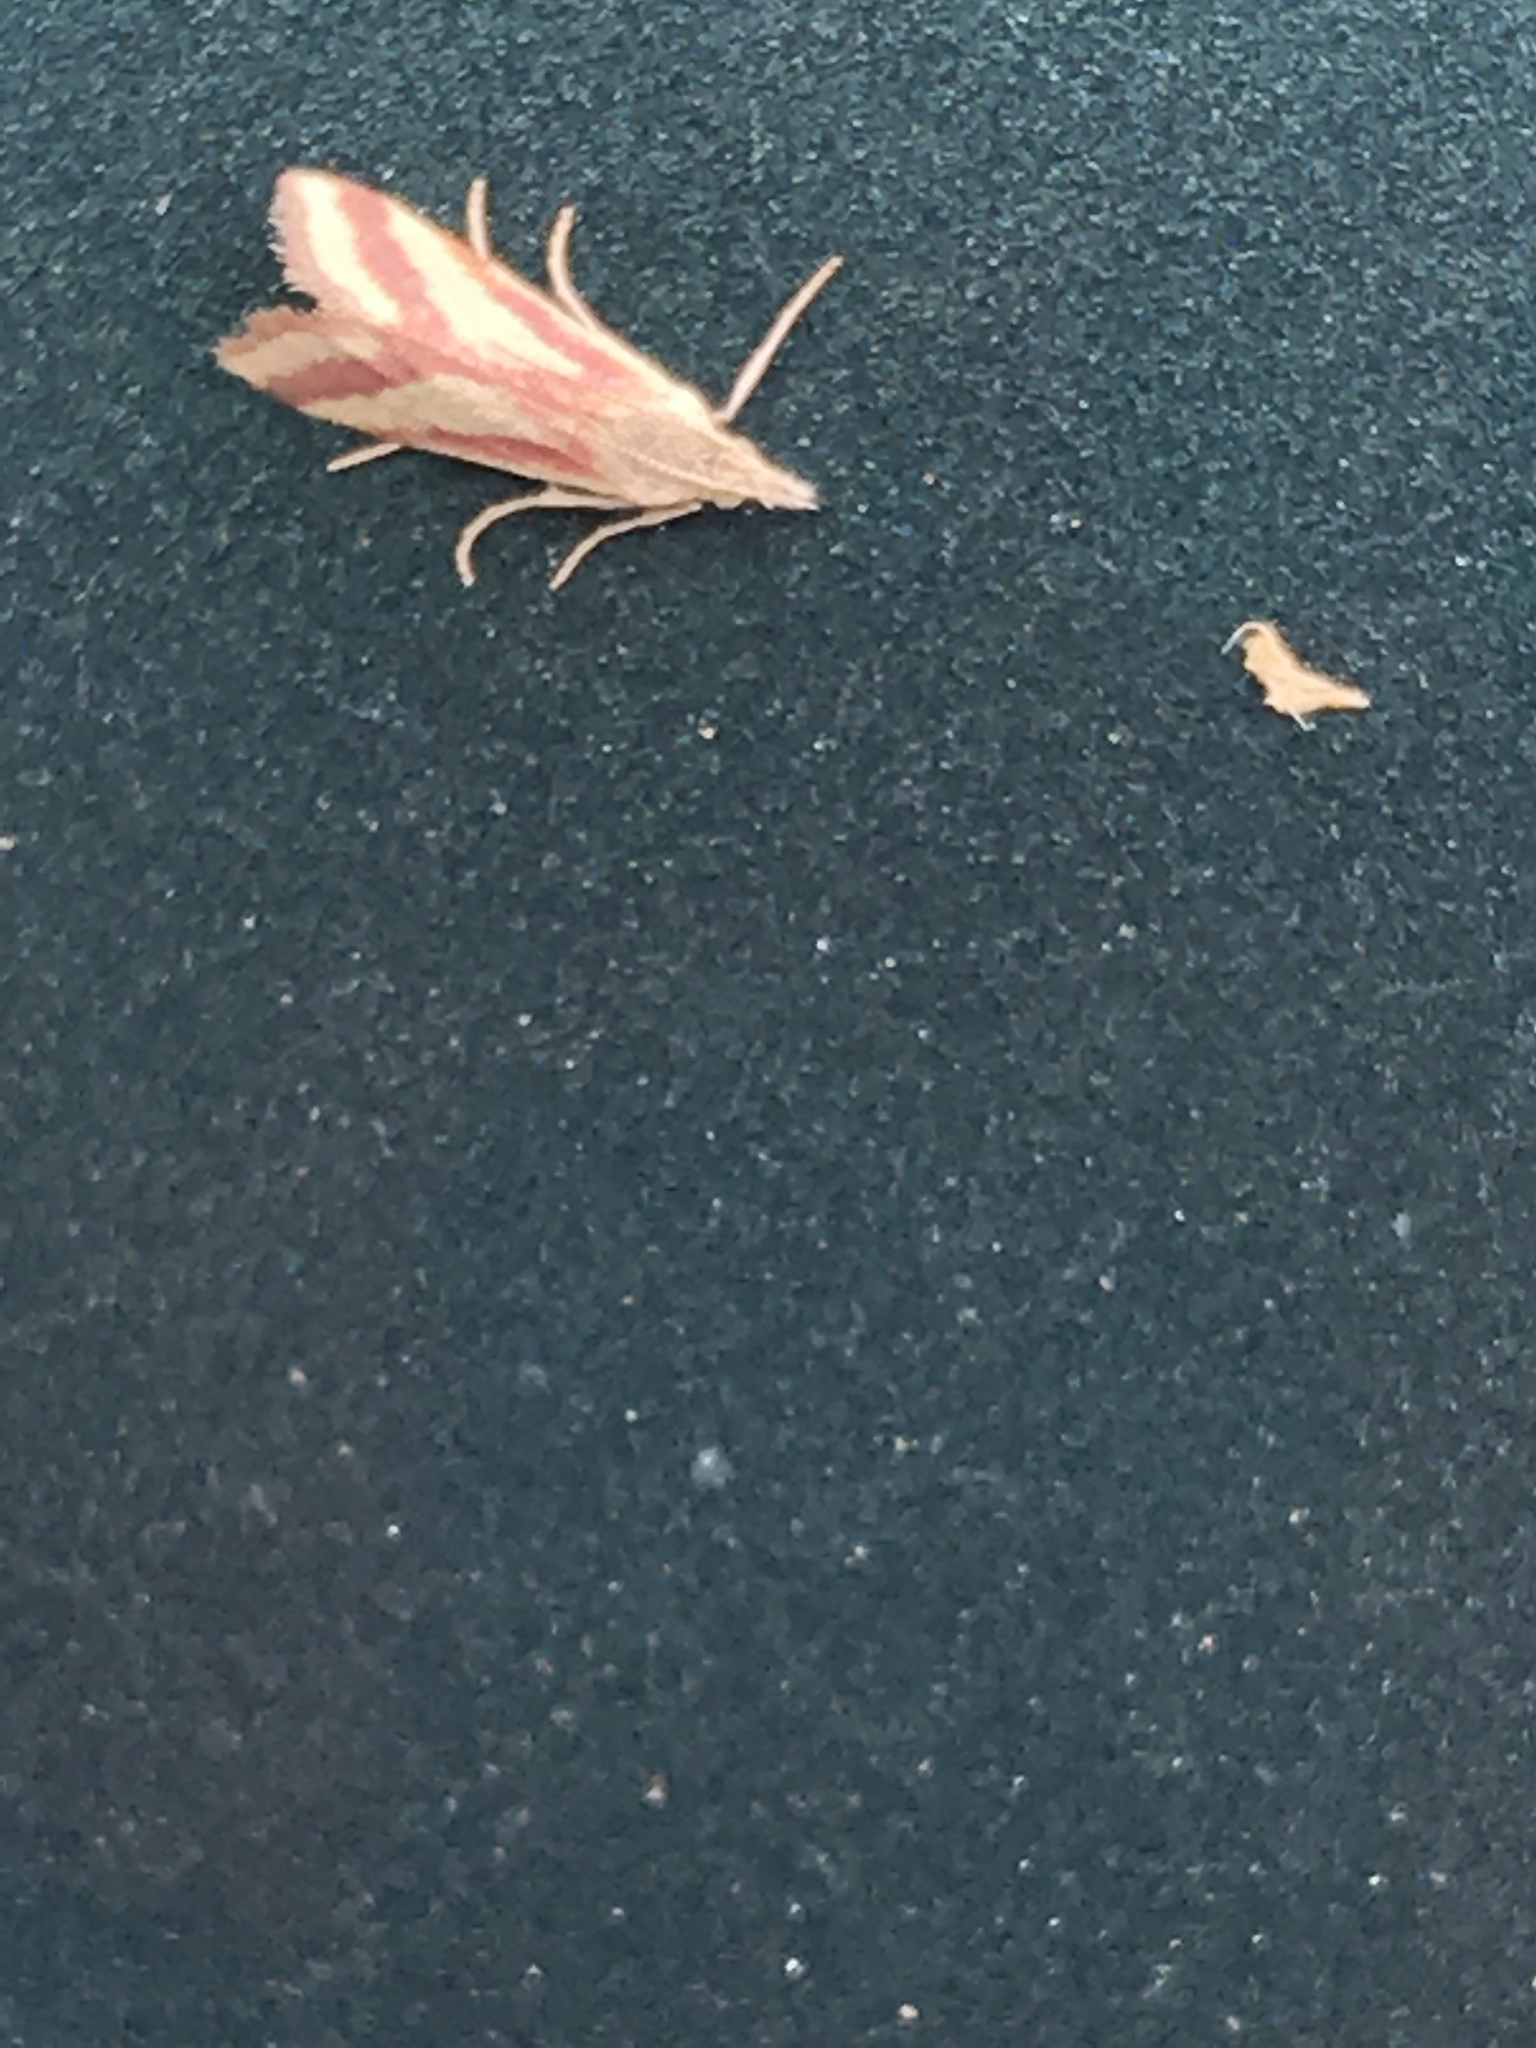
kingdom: Animalia
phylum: Arthropoda
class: Insecta
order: Lepidoptera
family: Crambidae
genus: Microtheoris
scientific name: Microtheoris vibicalis
